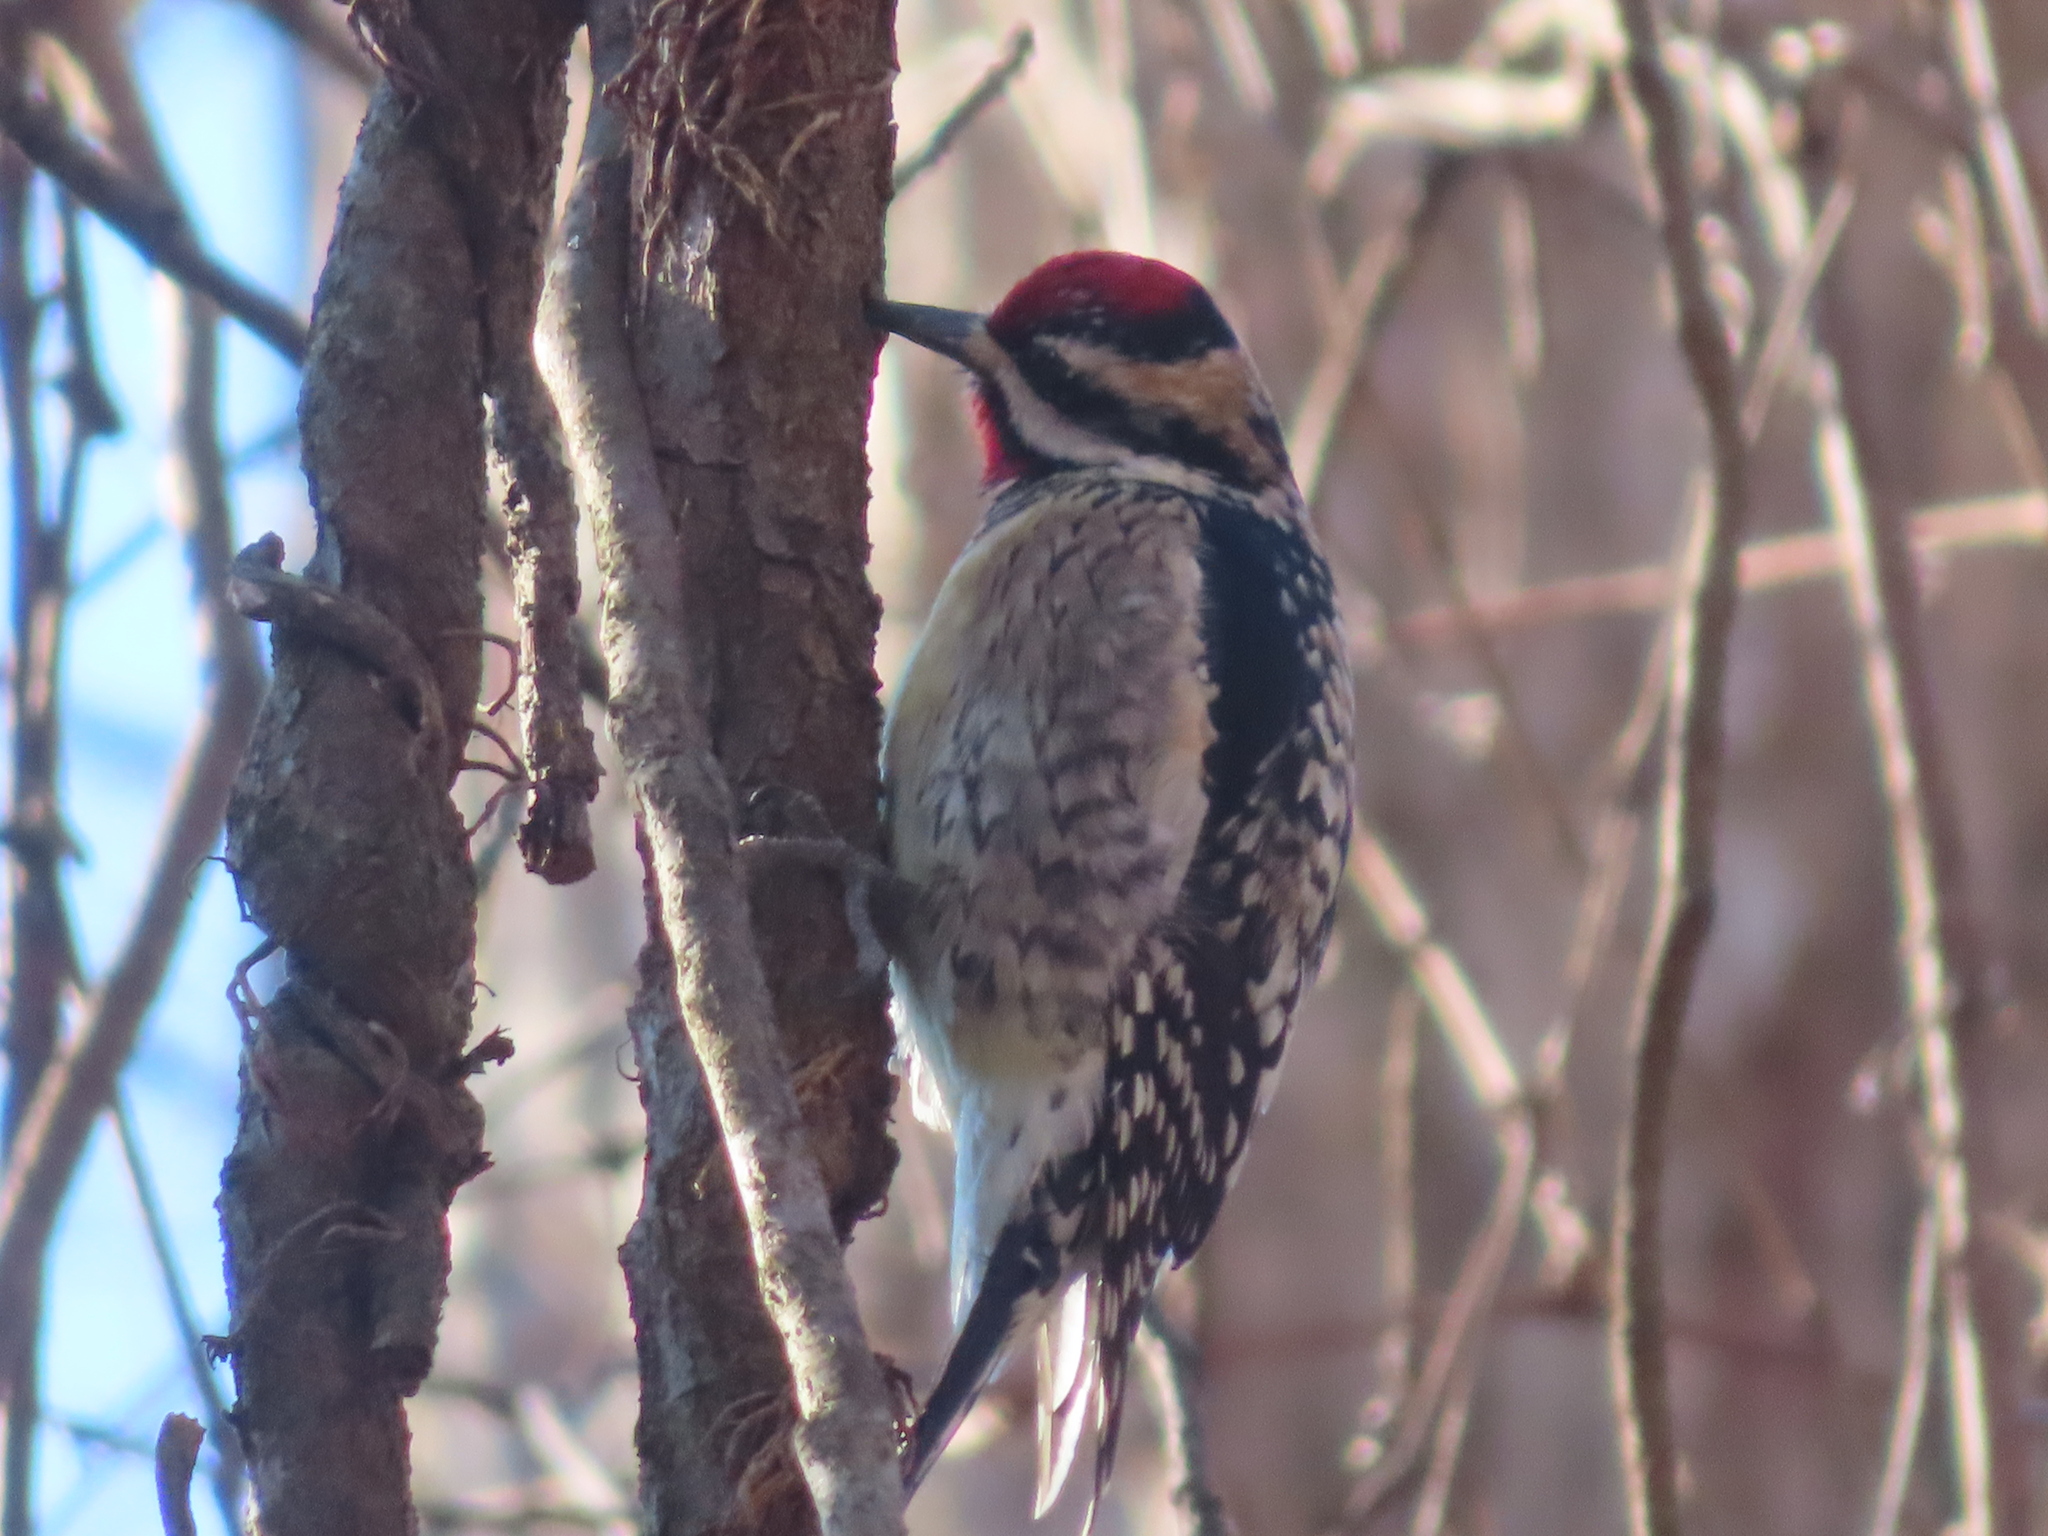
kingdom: Animalia
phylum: Chordata
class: Aves
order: Piciformes
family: Picidae
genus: Sphyrapicus
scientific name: Sphyrapicus varius
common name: Yellow-bellied sapsucker
